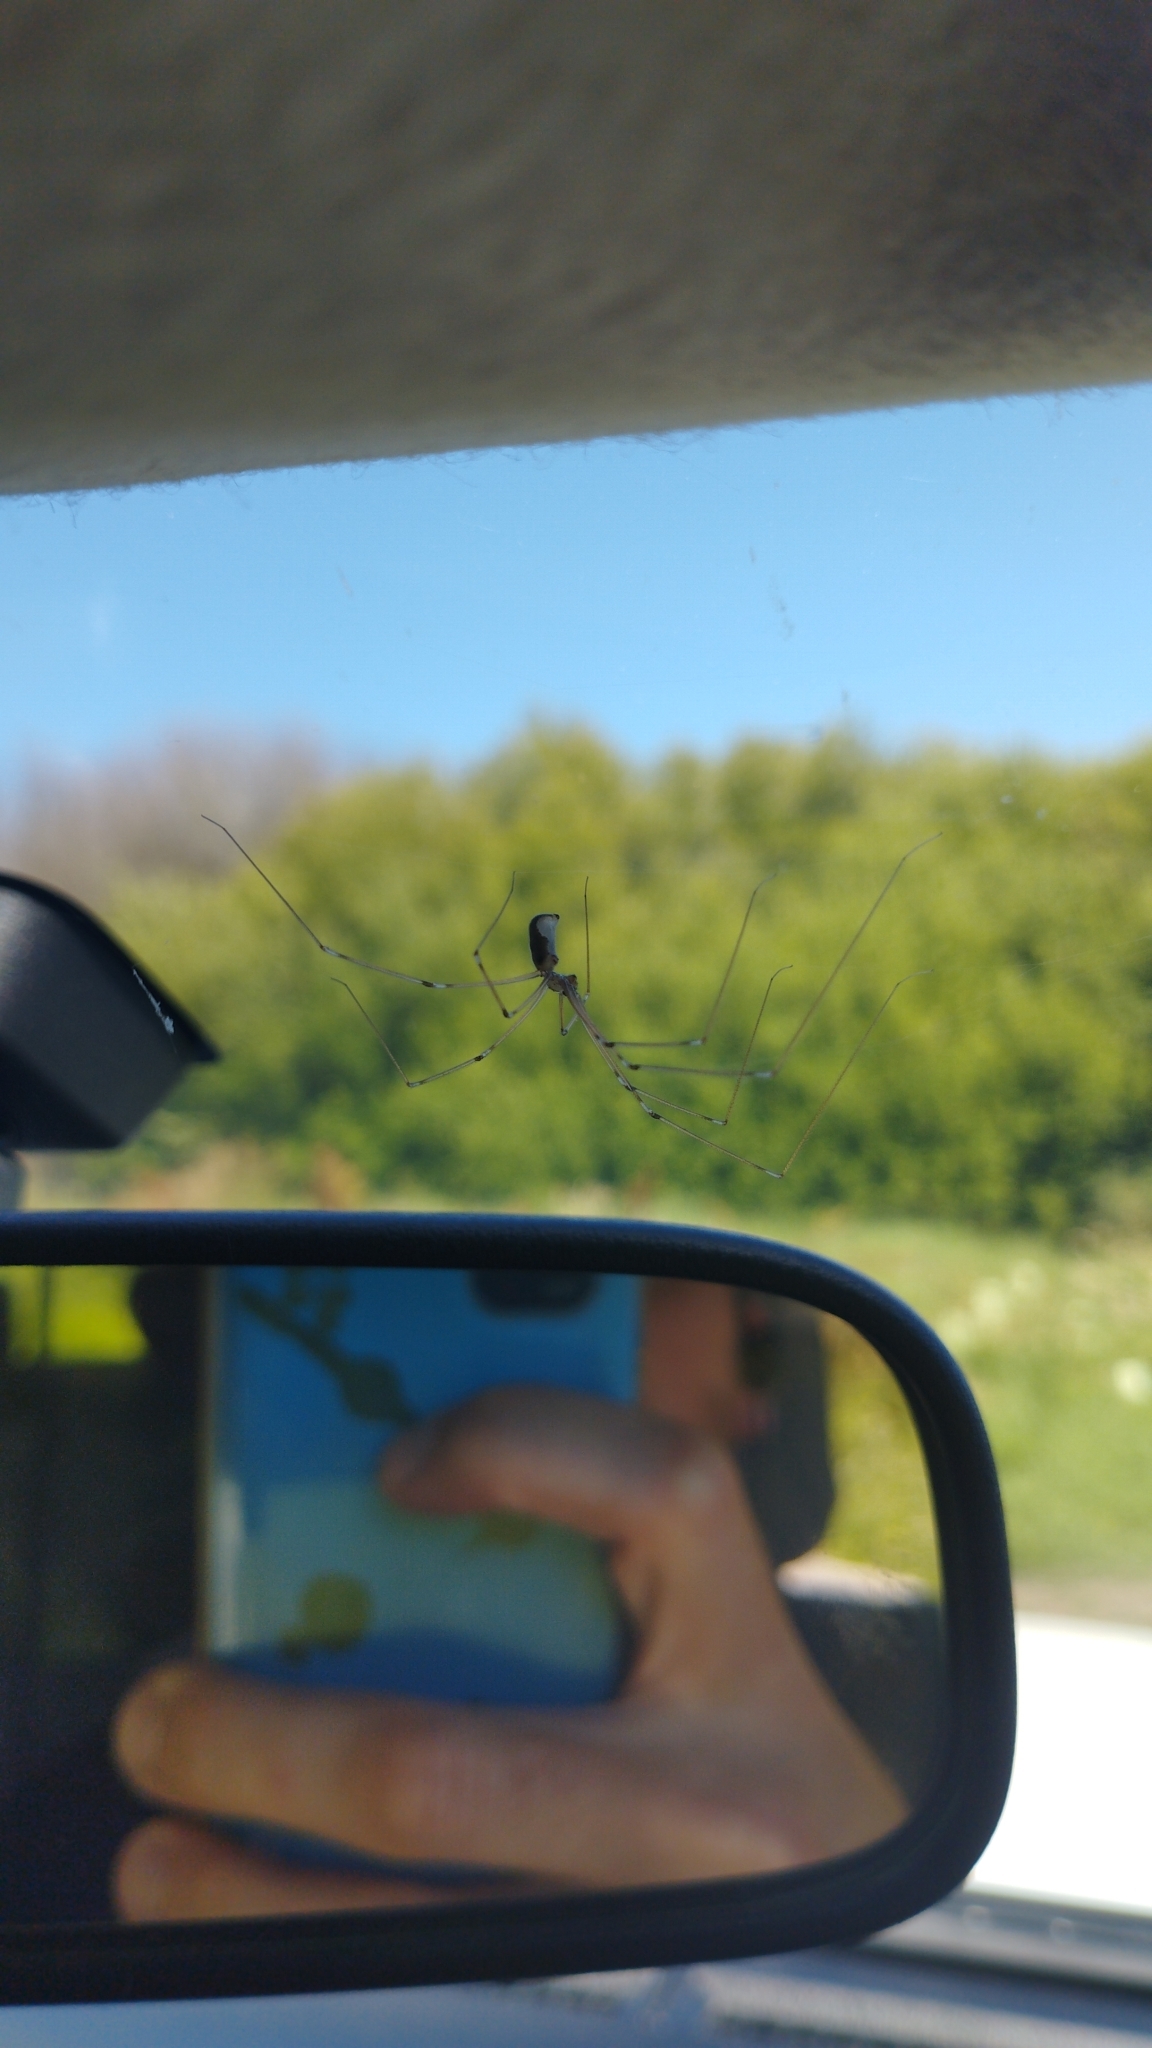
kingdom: Animalia
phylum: Arthropoda
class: Arachnida
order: Araneae
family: Pholcidae
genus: Pholcus
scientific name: Pholcus phalangioides
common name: Longbodied cellar spider
